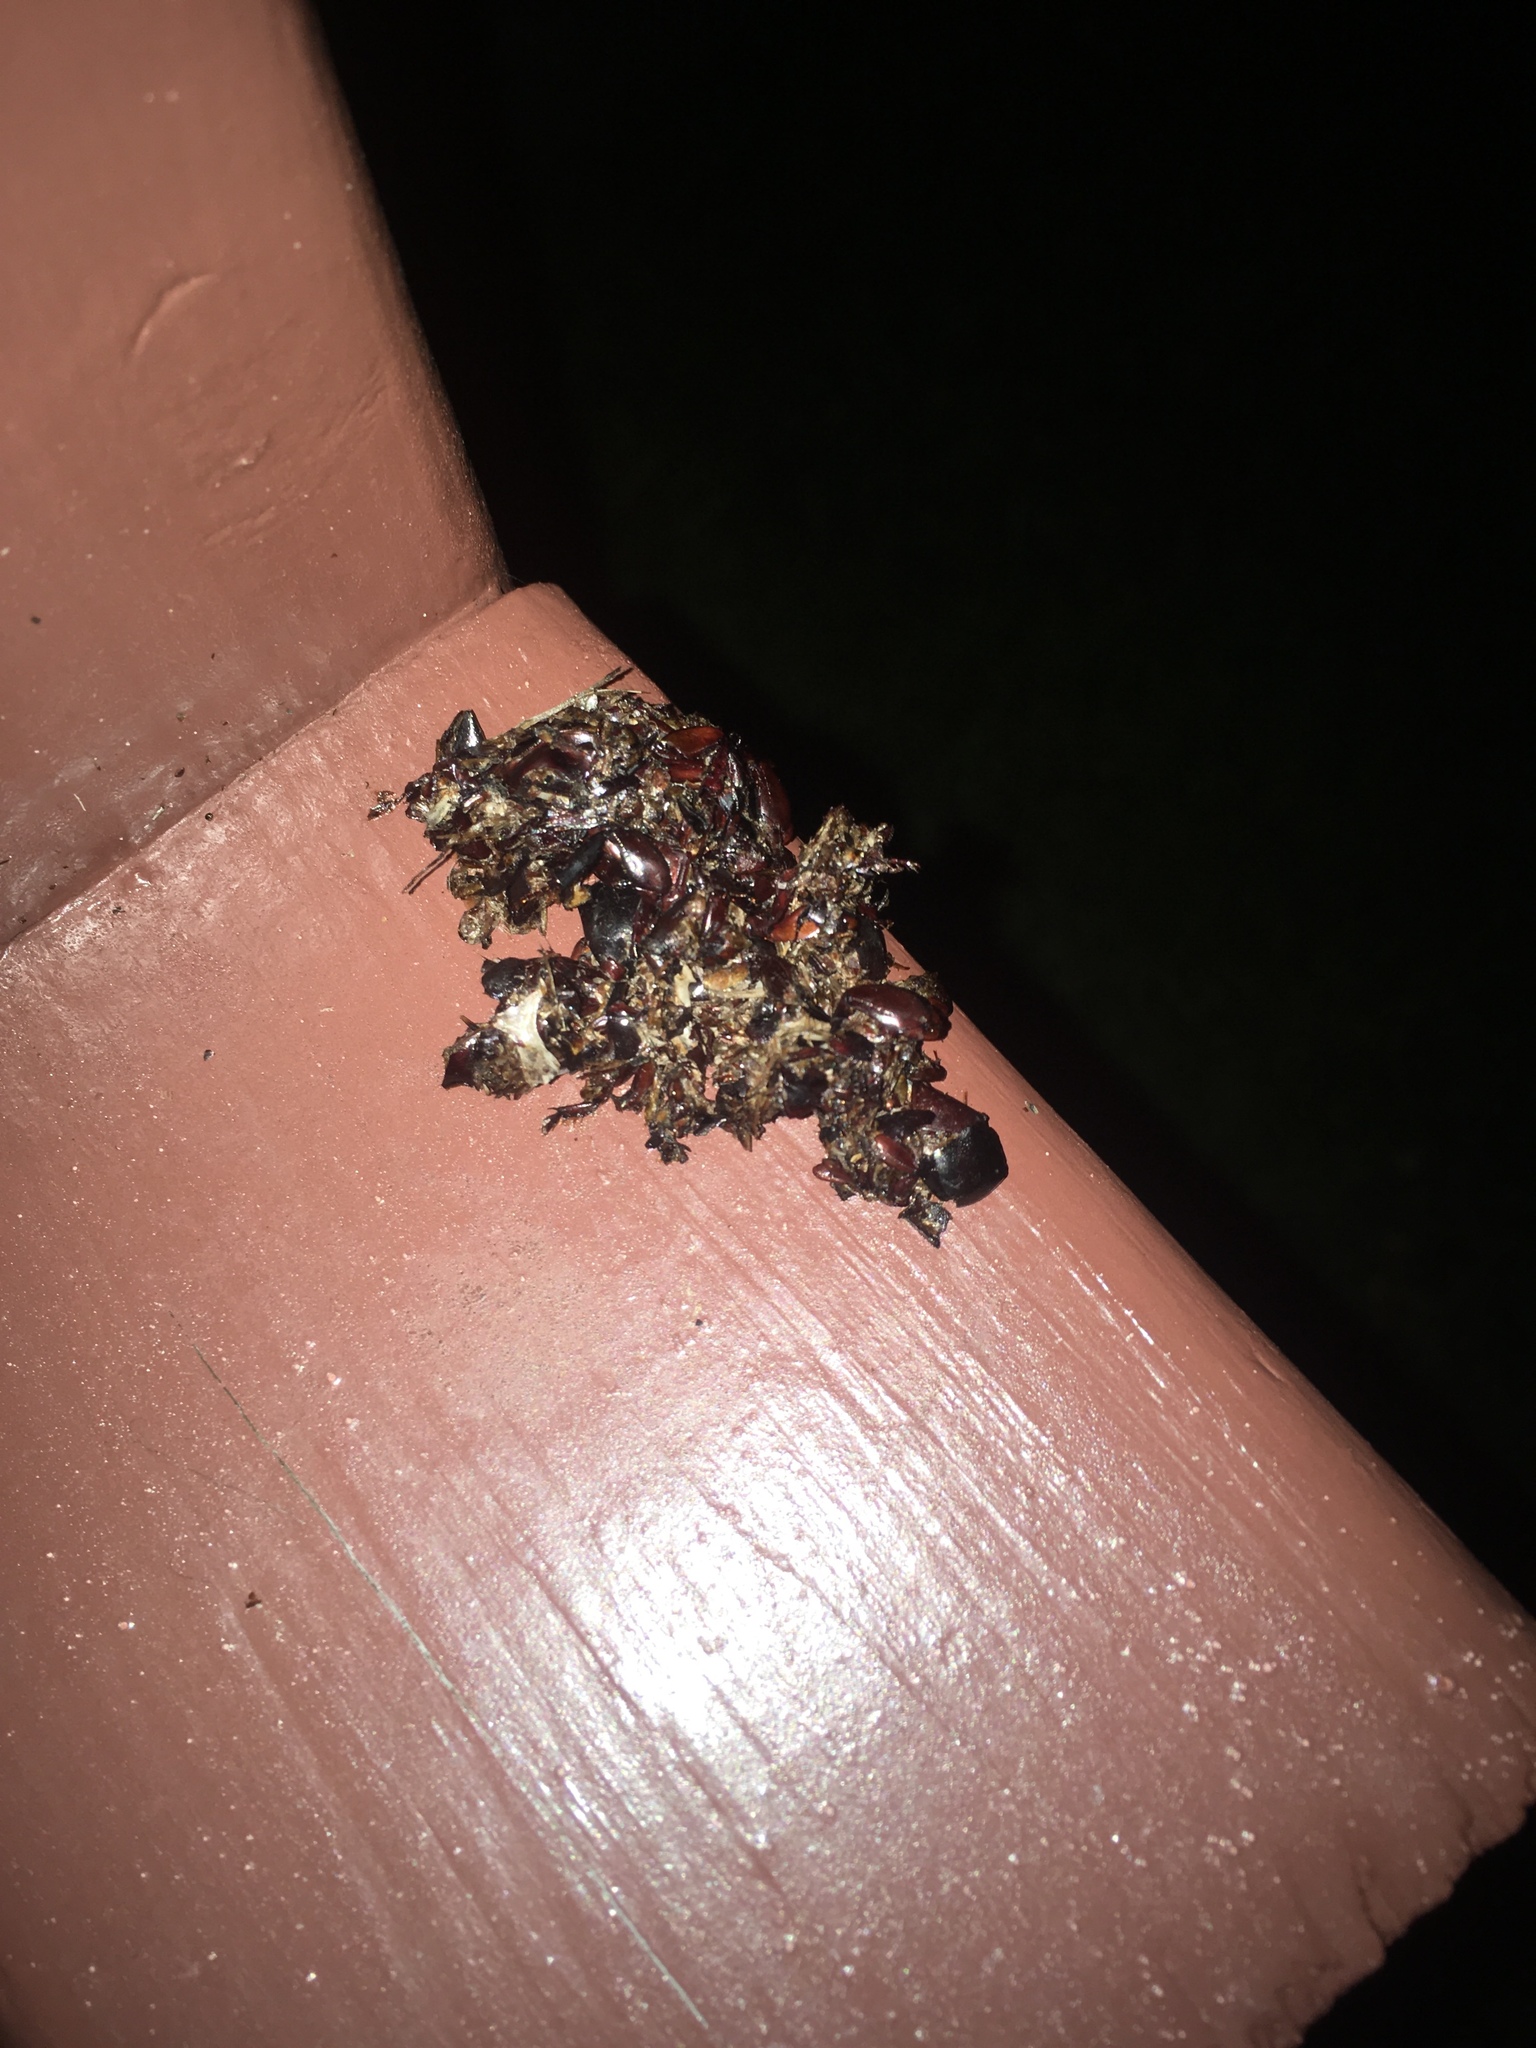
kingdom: Animalia
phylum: Chordata
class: Aves
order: Strigiformes
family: Strigidae
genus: Athene
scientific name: Athene cunicularia
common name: Burrowing owl
